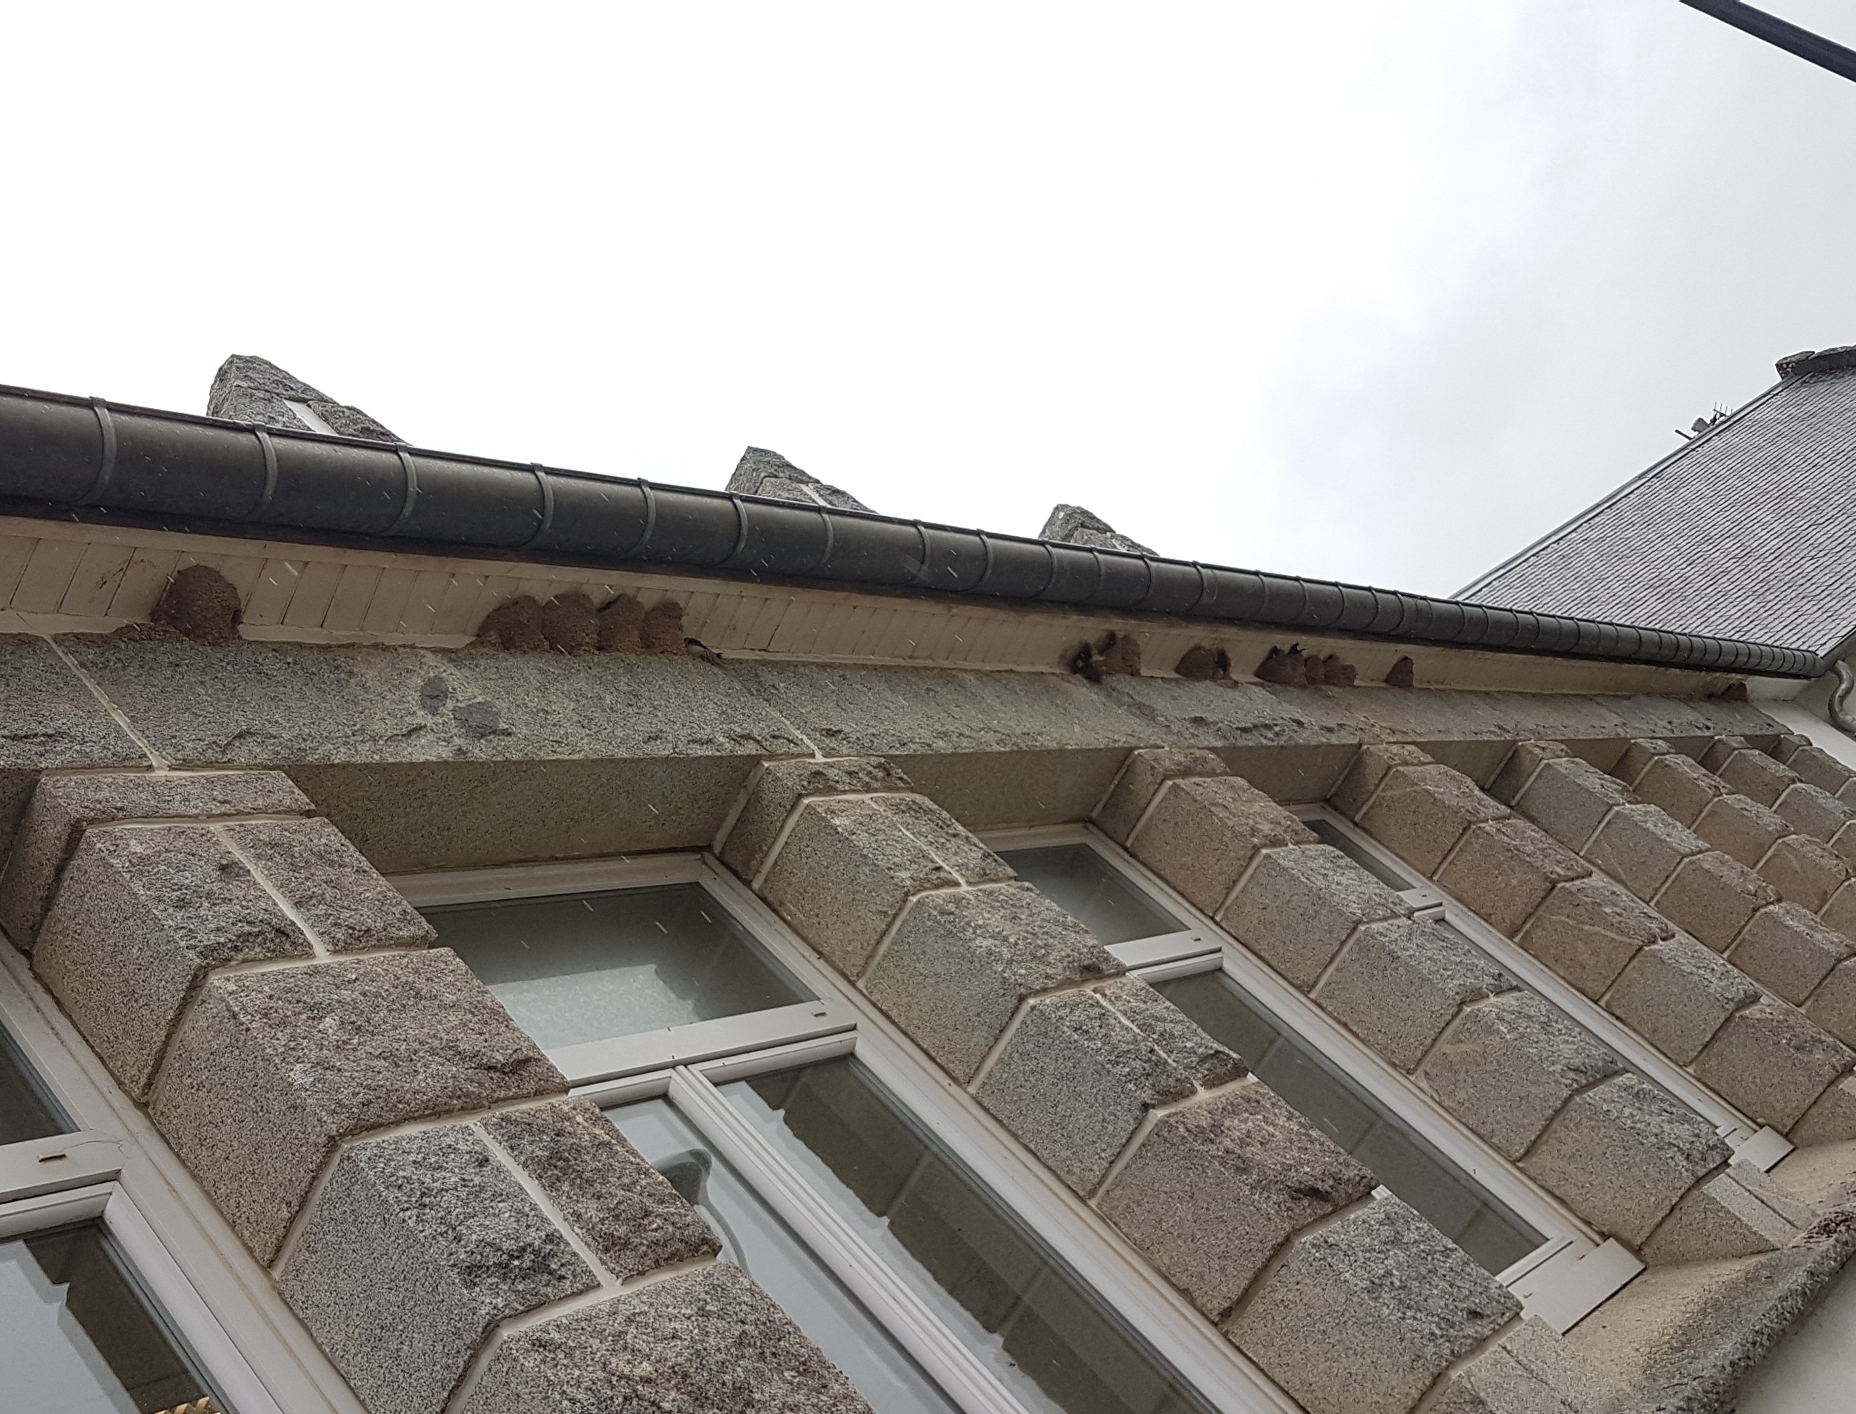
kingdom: Animalia
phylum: Chordata
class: Aves
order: Passeriformes
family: Hirundinidae
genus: Delichon
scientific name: Delichon urbicum
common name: Common house martin
